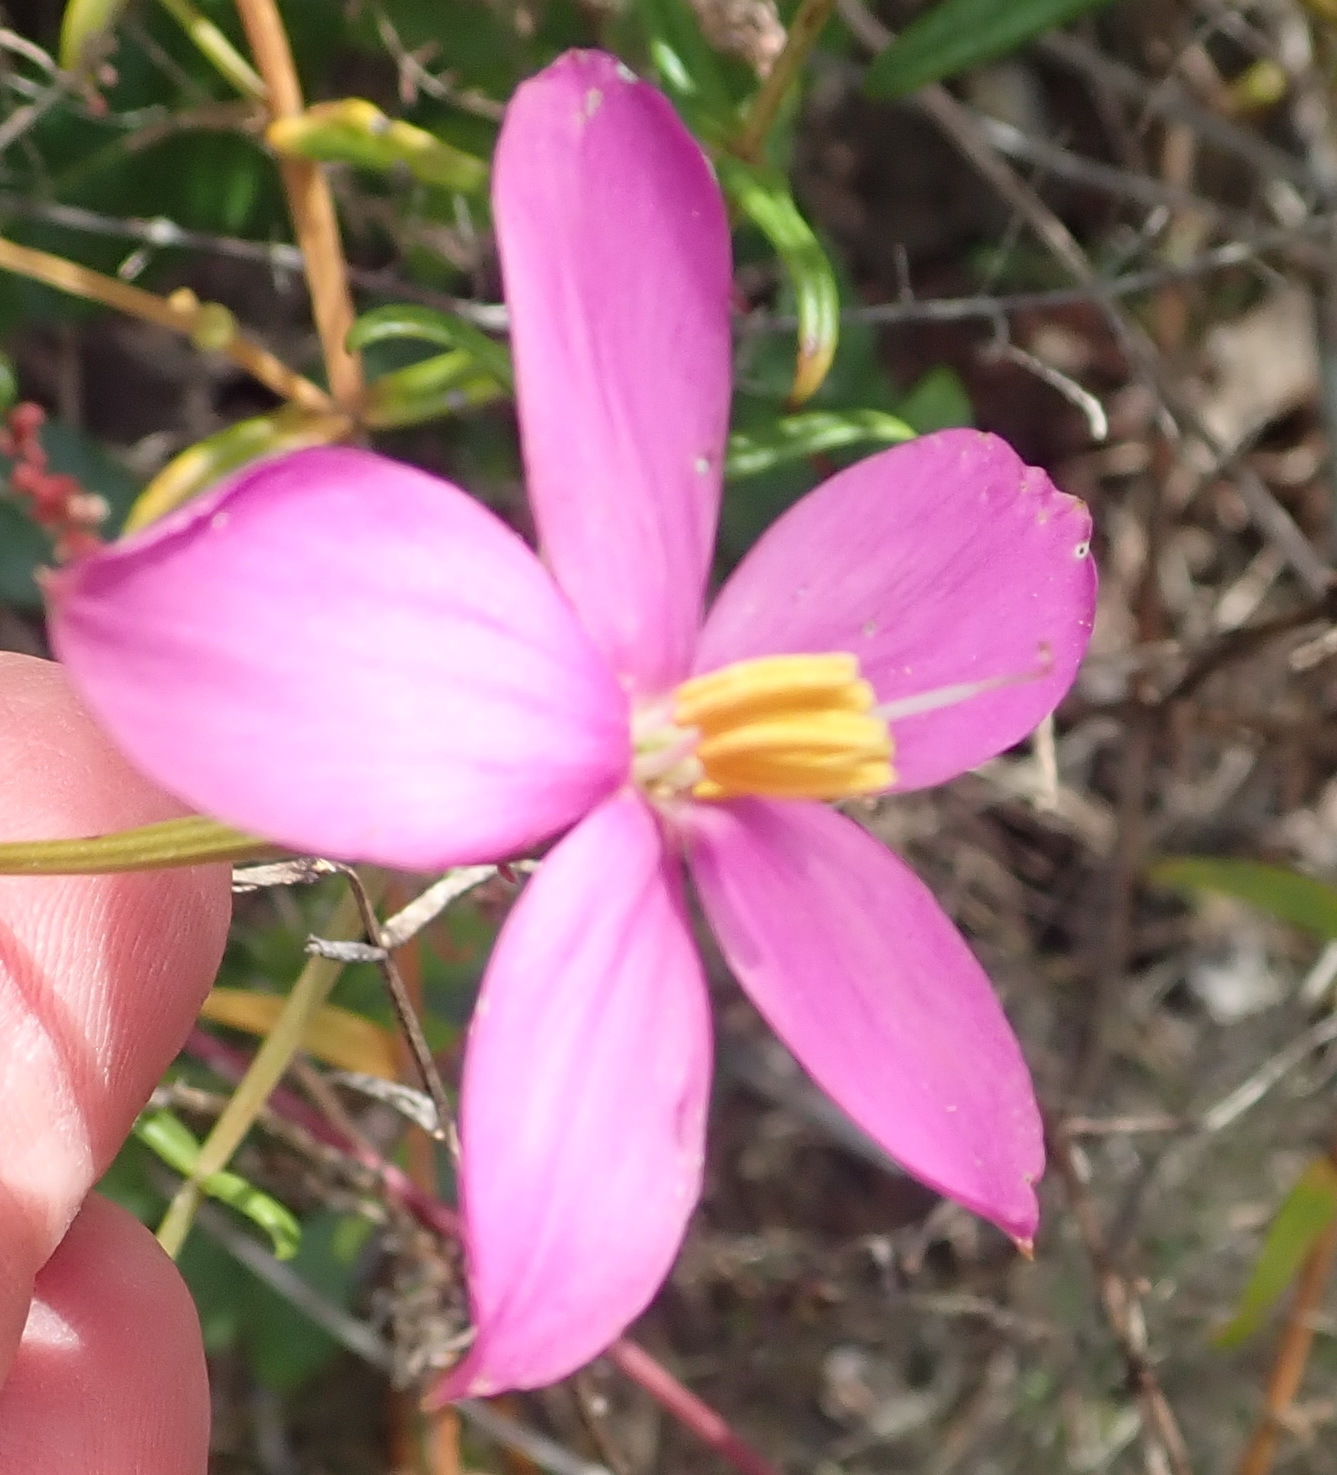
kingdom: Plantae
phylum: Tracheophyta
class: Magnoliopsida
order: Gentianales
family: Gentianaceae
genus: Chironia
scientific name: Chironia tetragona
